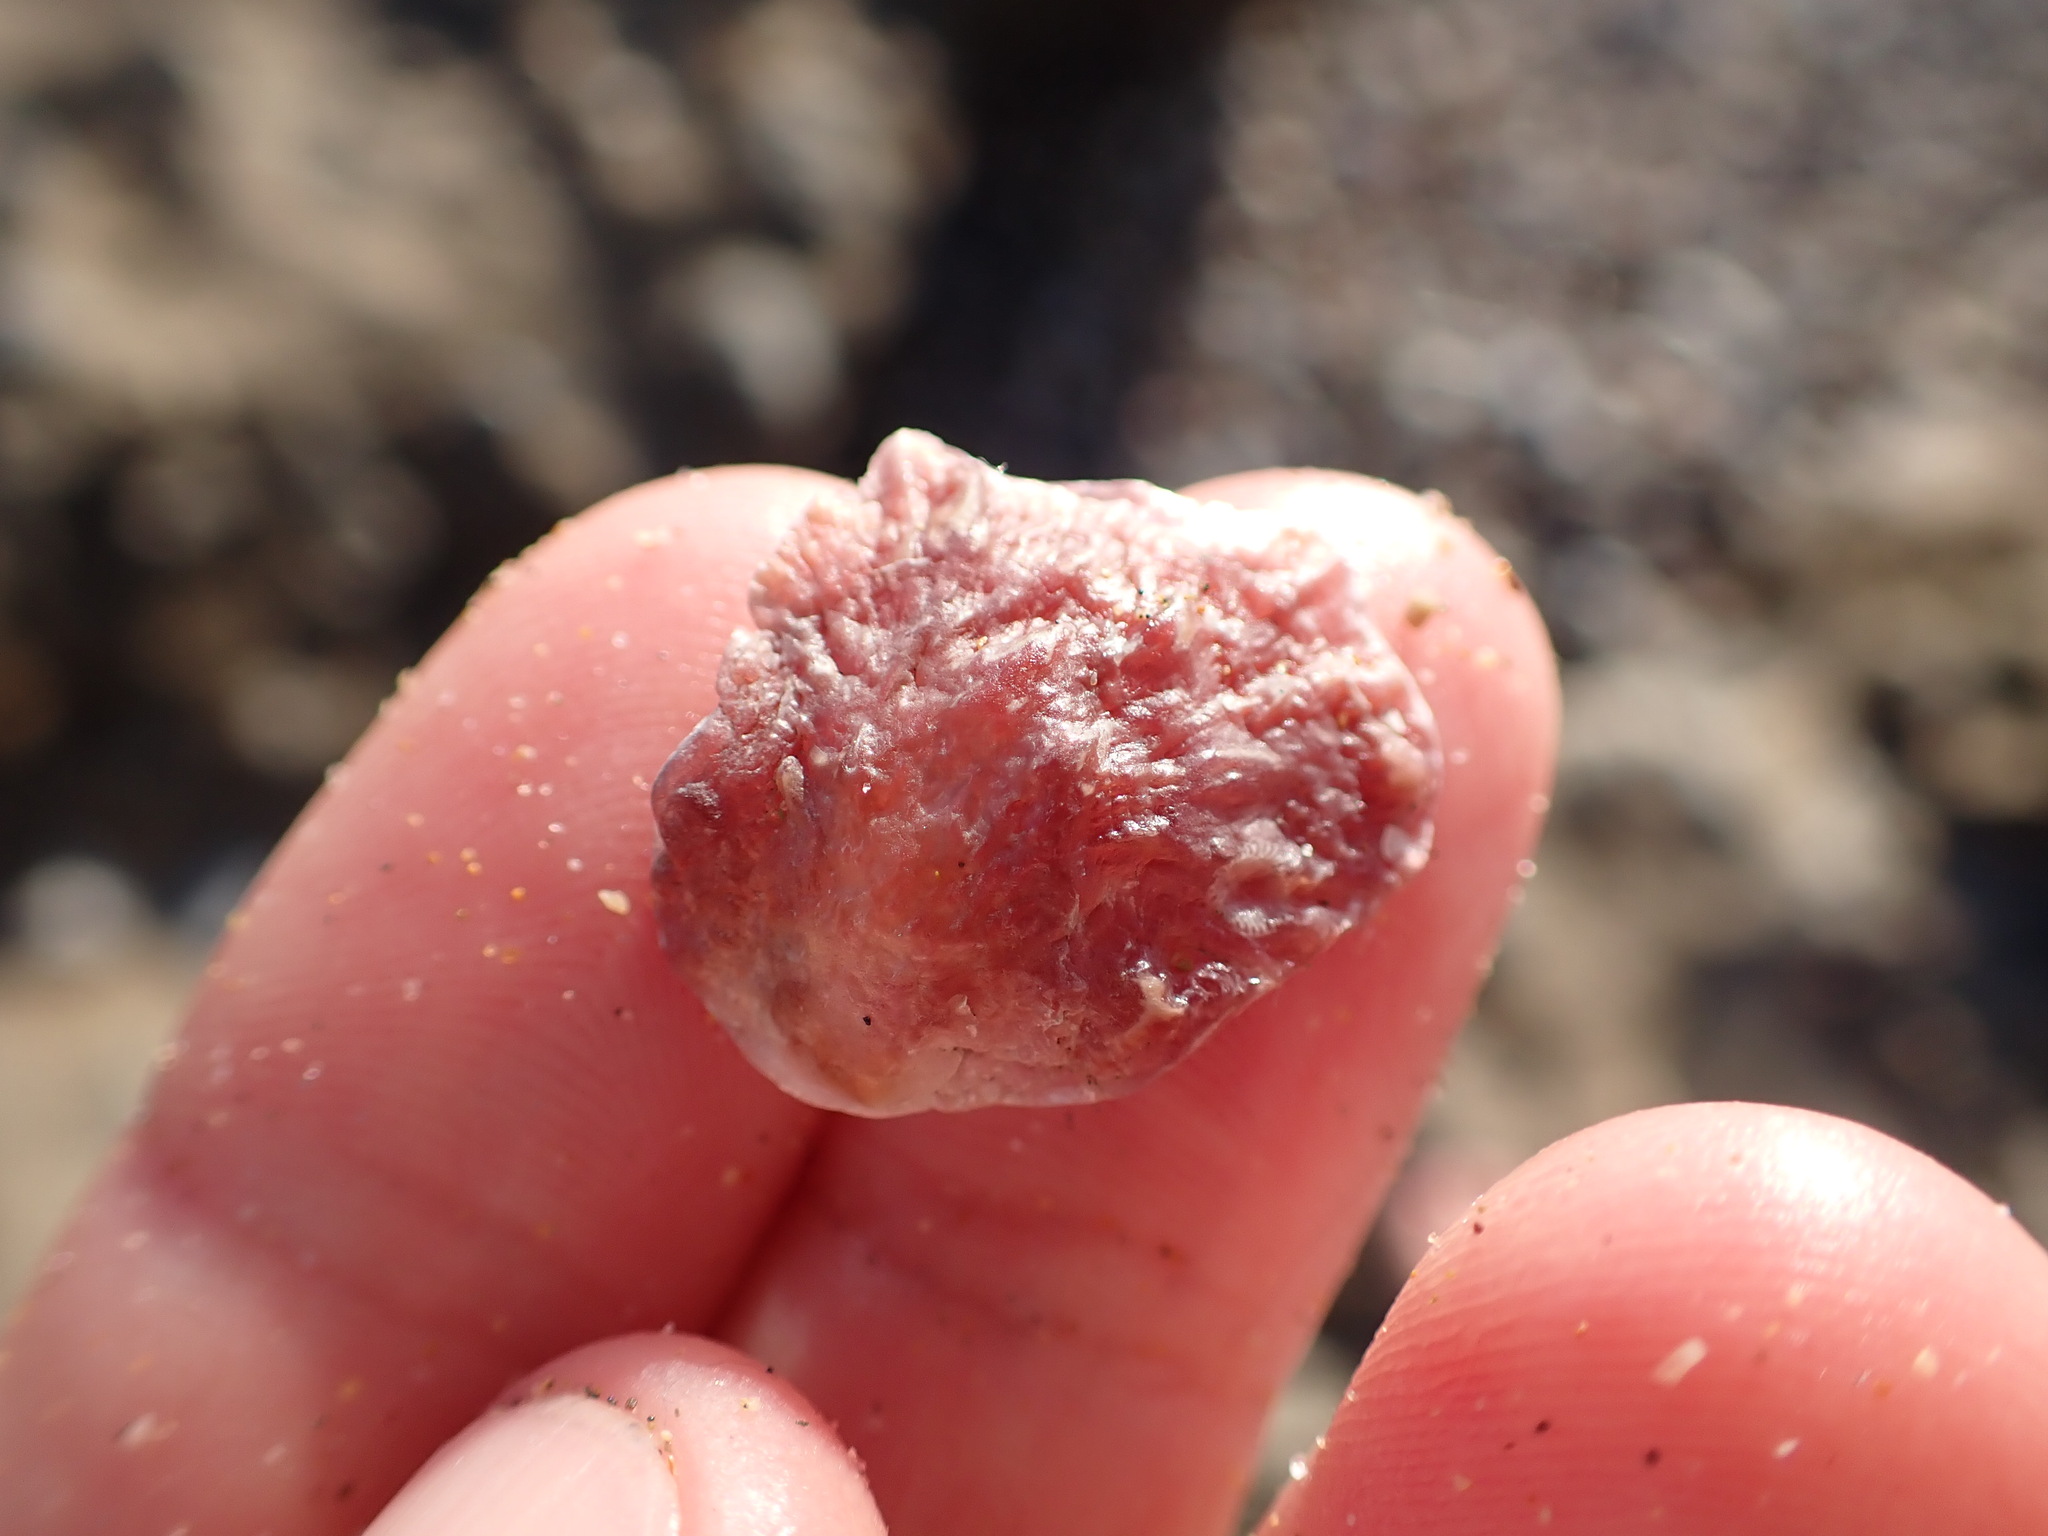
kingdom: Animalia
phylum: Mollusca
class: Bivalvia
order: Pectinida
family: Anomiidae
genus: Anomia
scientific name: Anomia ephippium
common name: Saddle oyster
